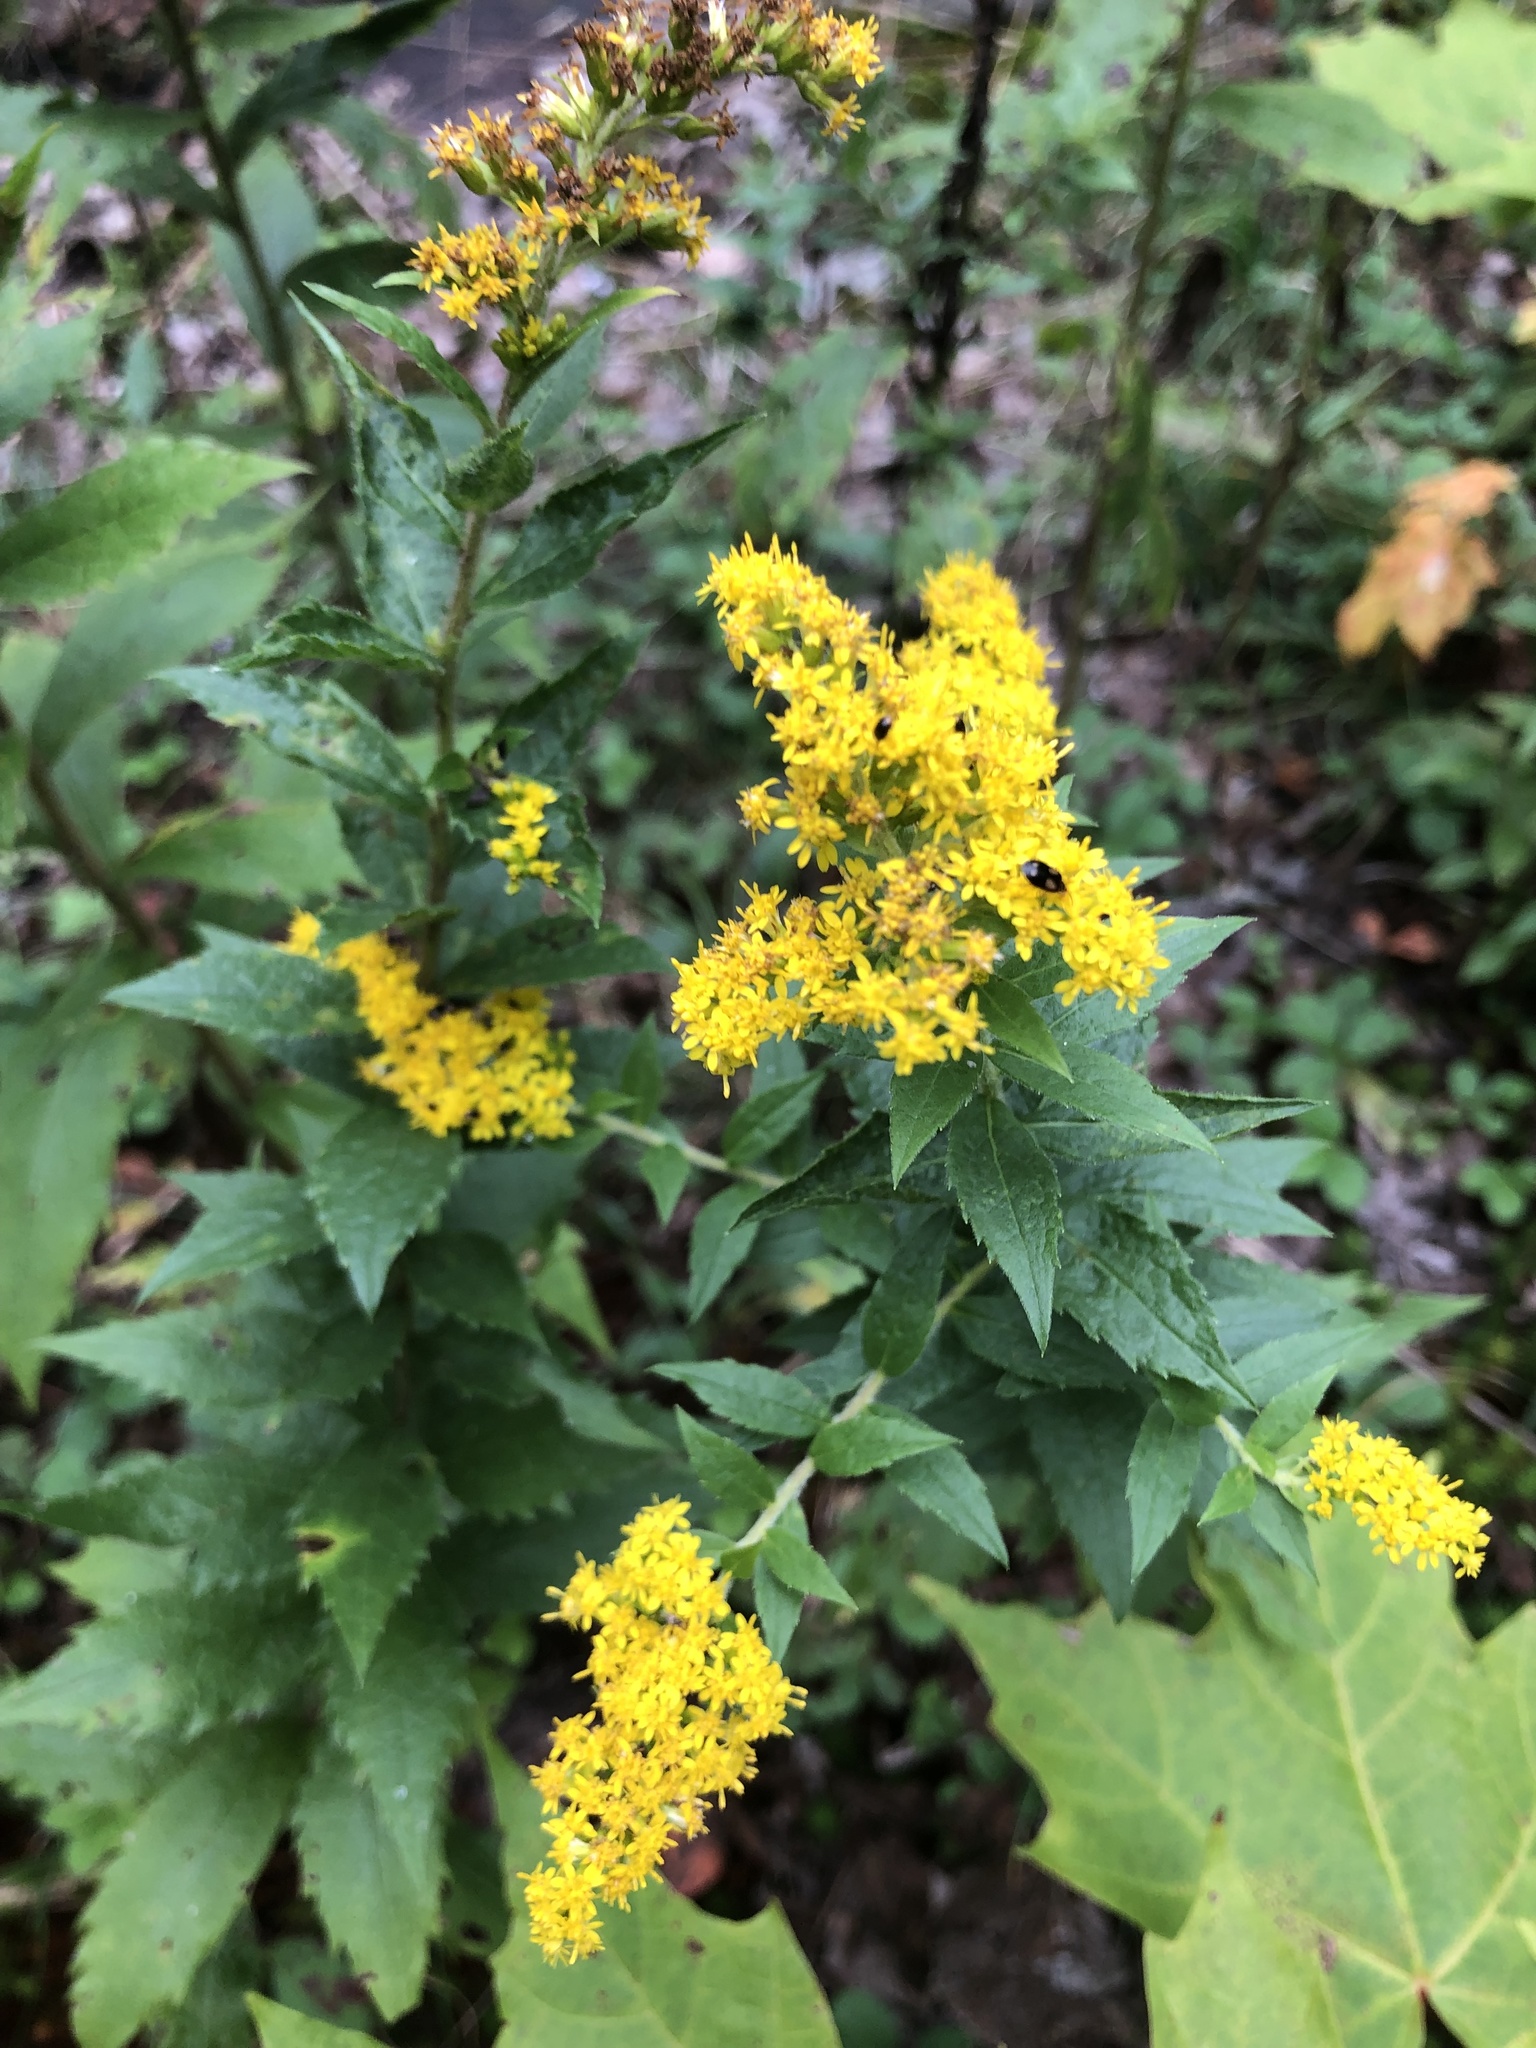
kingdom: Plantae
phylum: Tracheophyta
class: Magnoliopsida
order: Asterales
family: Asteraceae
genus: Solidago
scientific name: Solidago rugosa
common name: Rough-stemmed goldenrod
